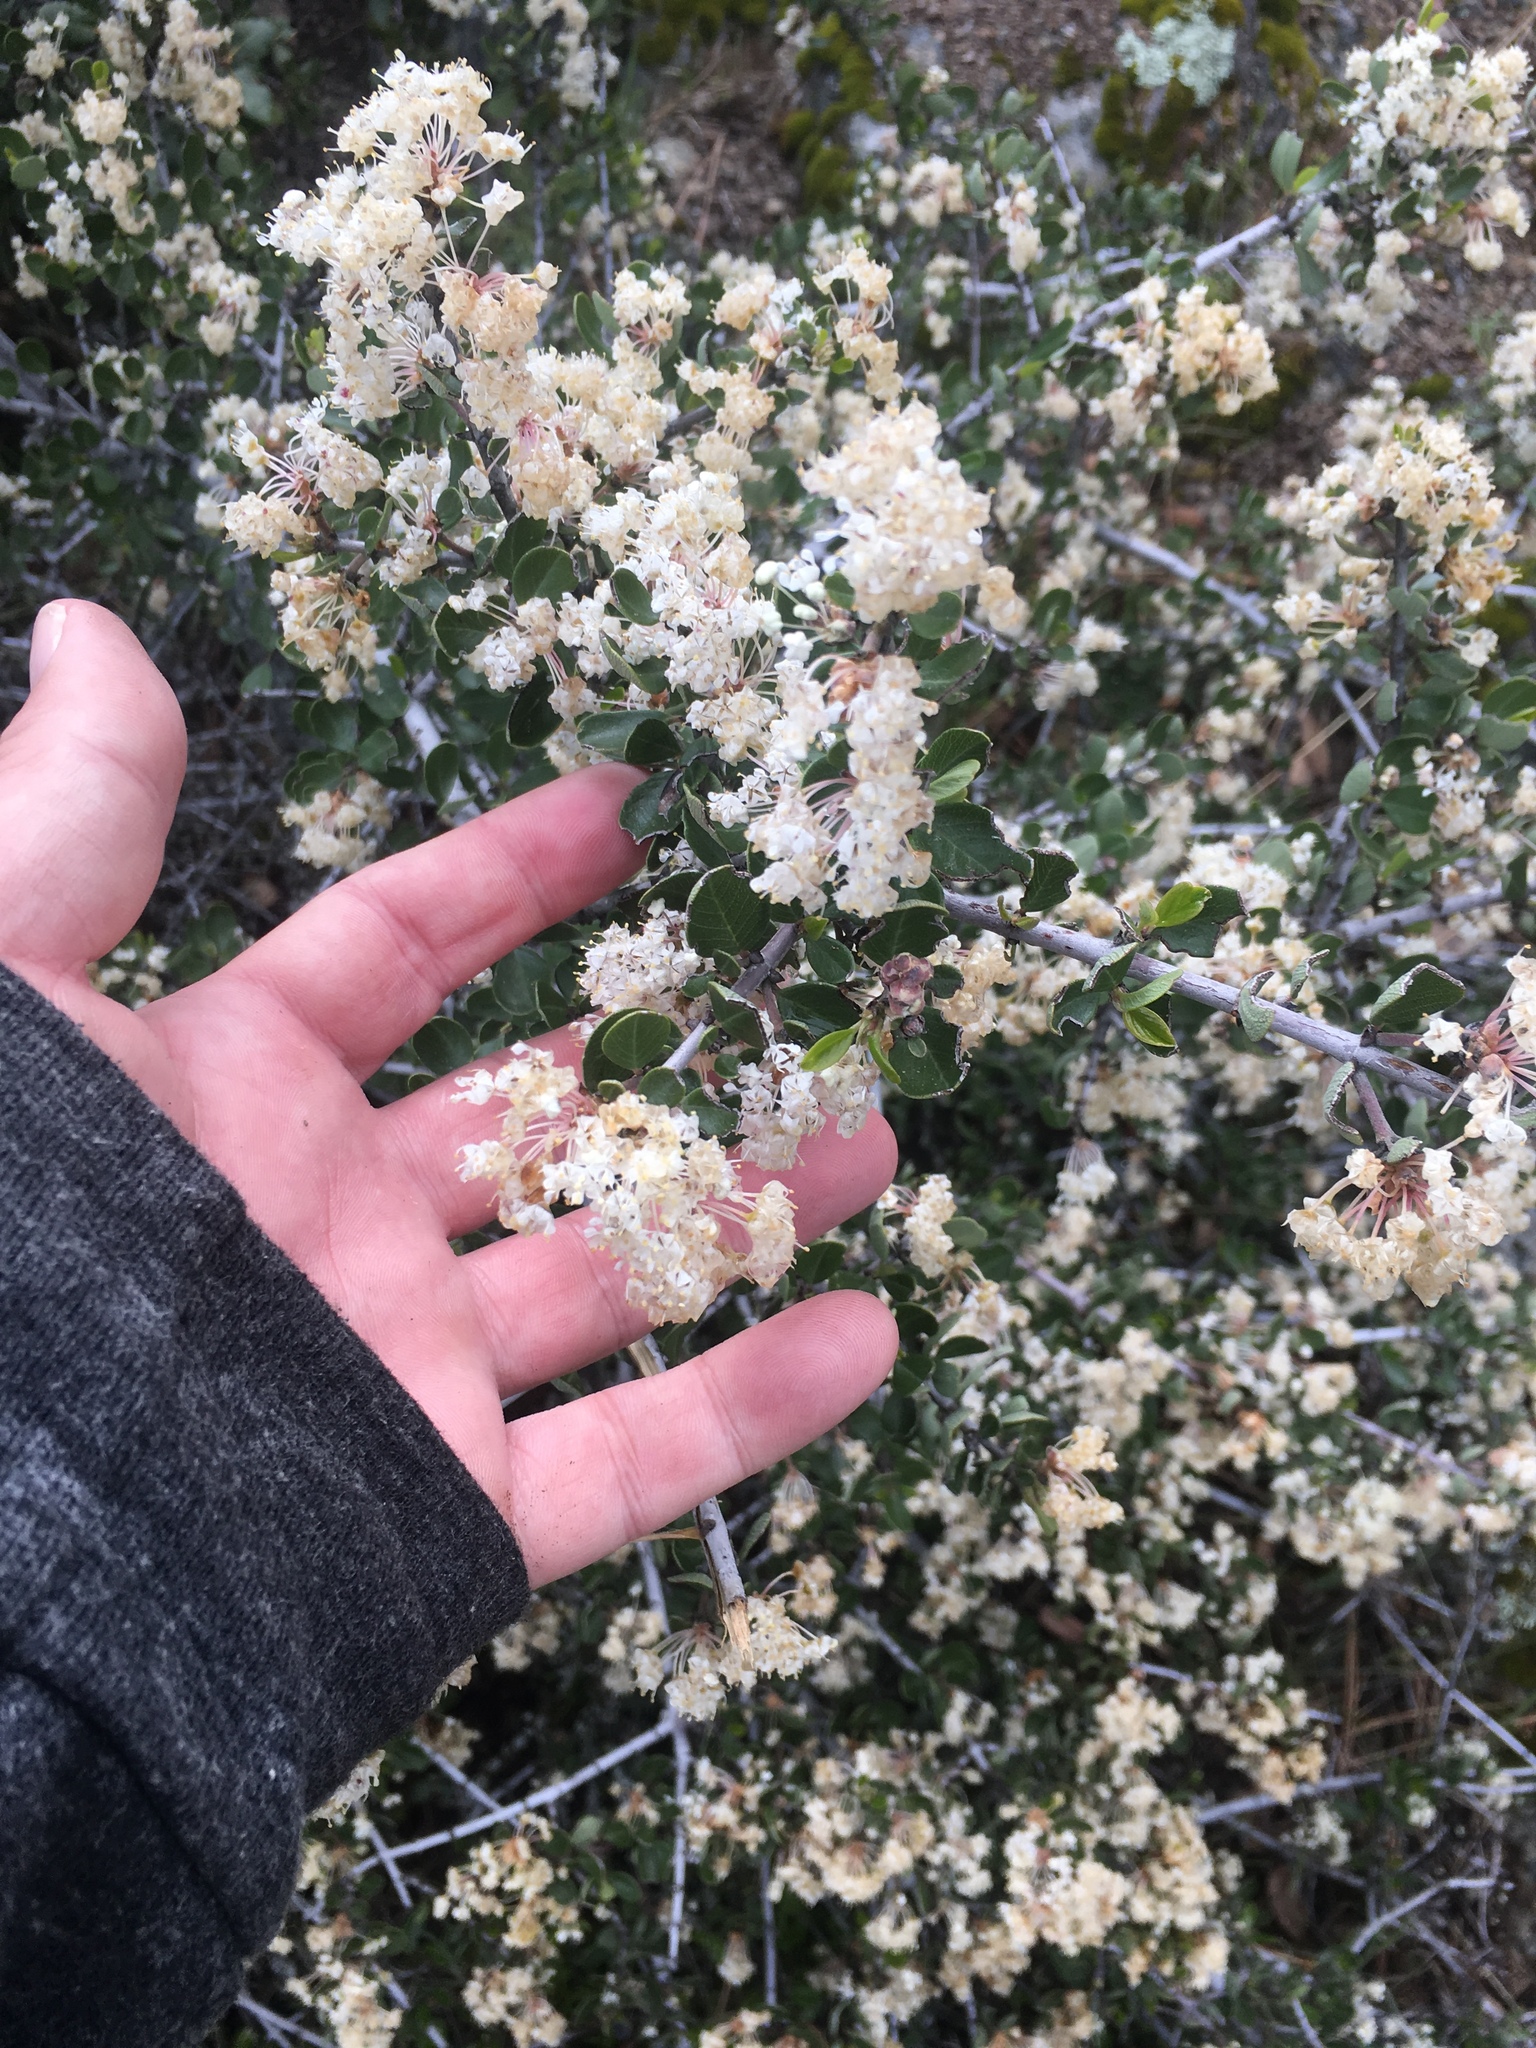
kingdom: Plantae
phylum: Tracheophyta
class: Magnoliopsida
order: Rosales
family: Rhamnaceae
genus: Ceanothus
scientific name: Ceanothus cuneatus
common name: Cuneate ceanothus
